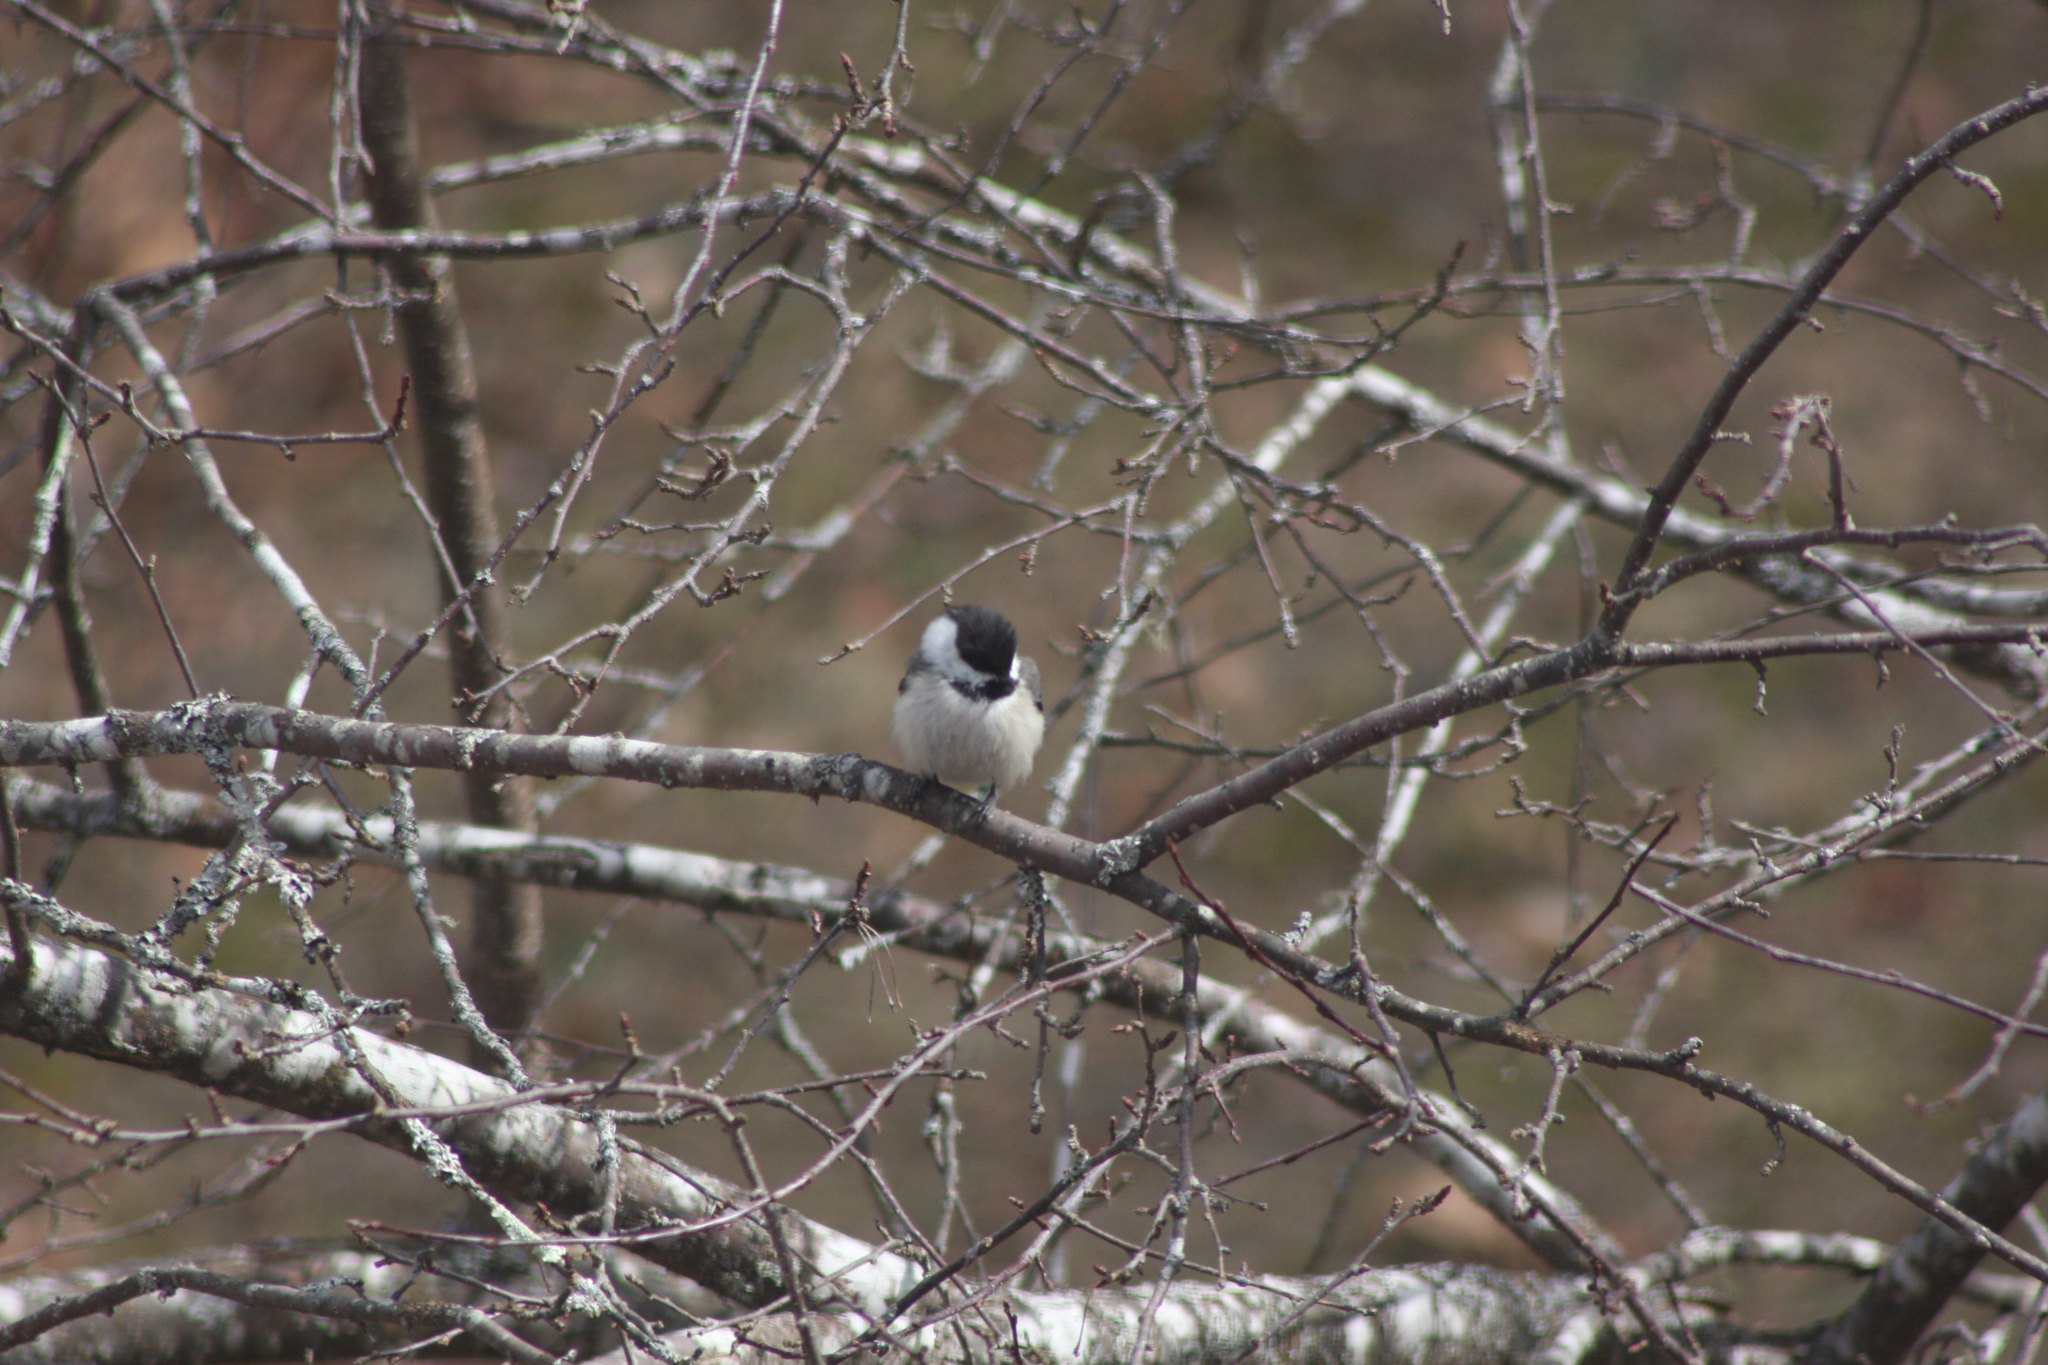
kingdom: Animalia
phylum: Chordata
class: Aves
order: Passeriformes
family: Paridae
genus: Poecile
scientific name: Poecile atricapillus
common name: Black-capped chickadee
